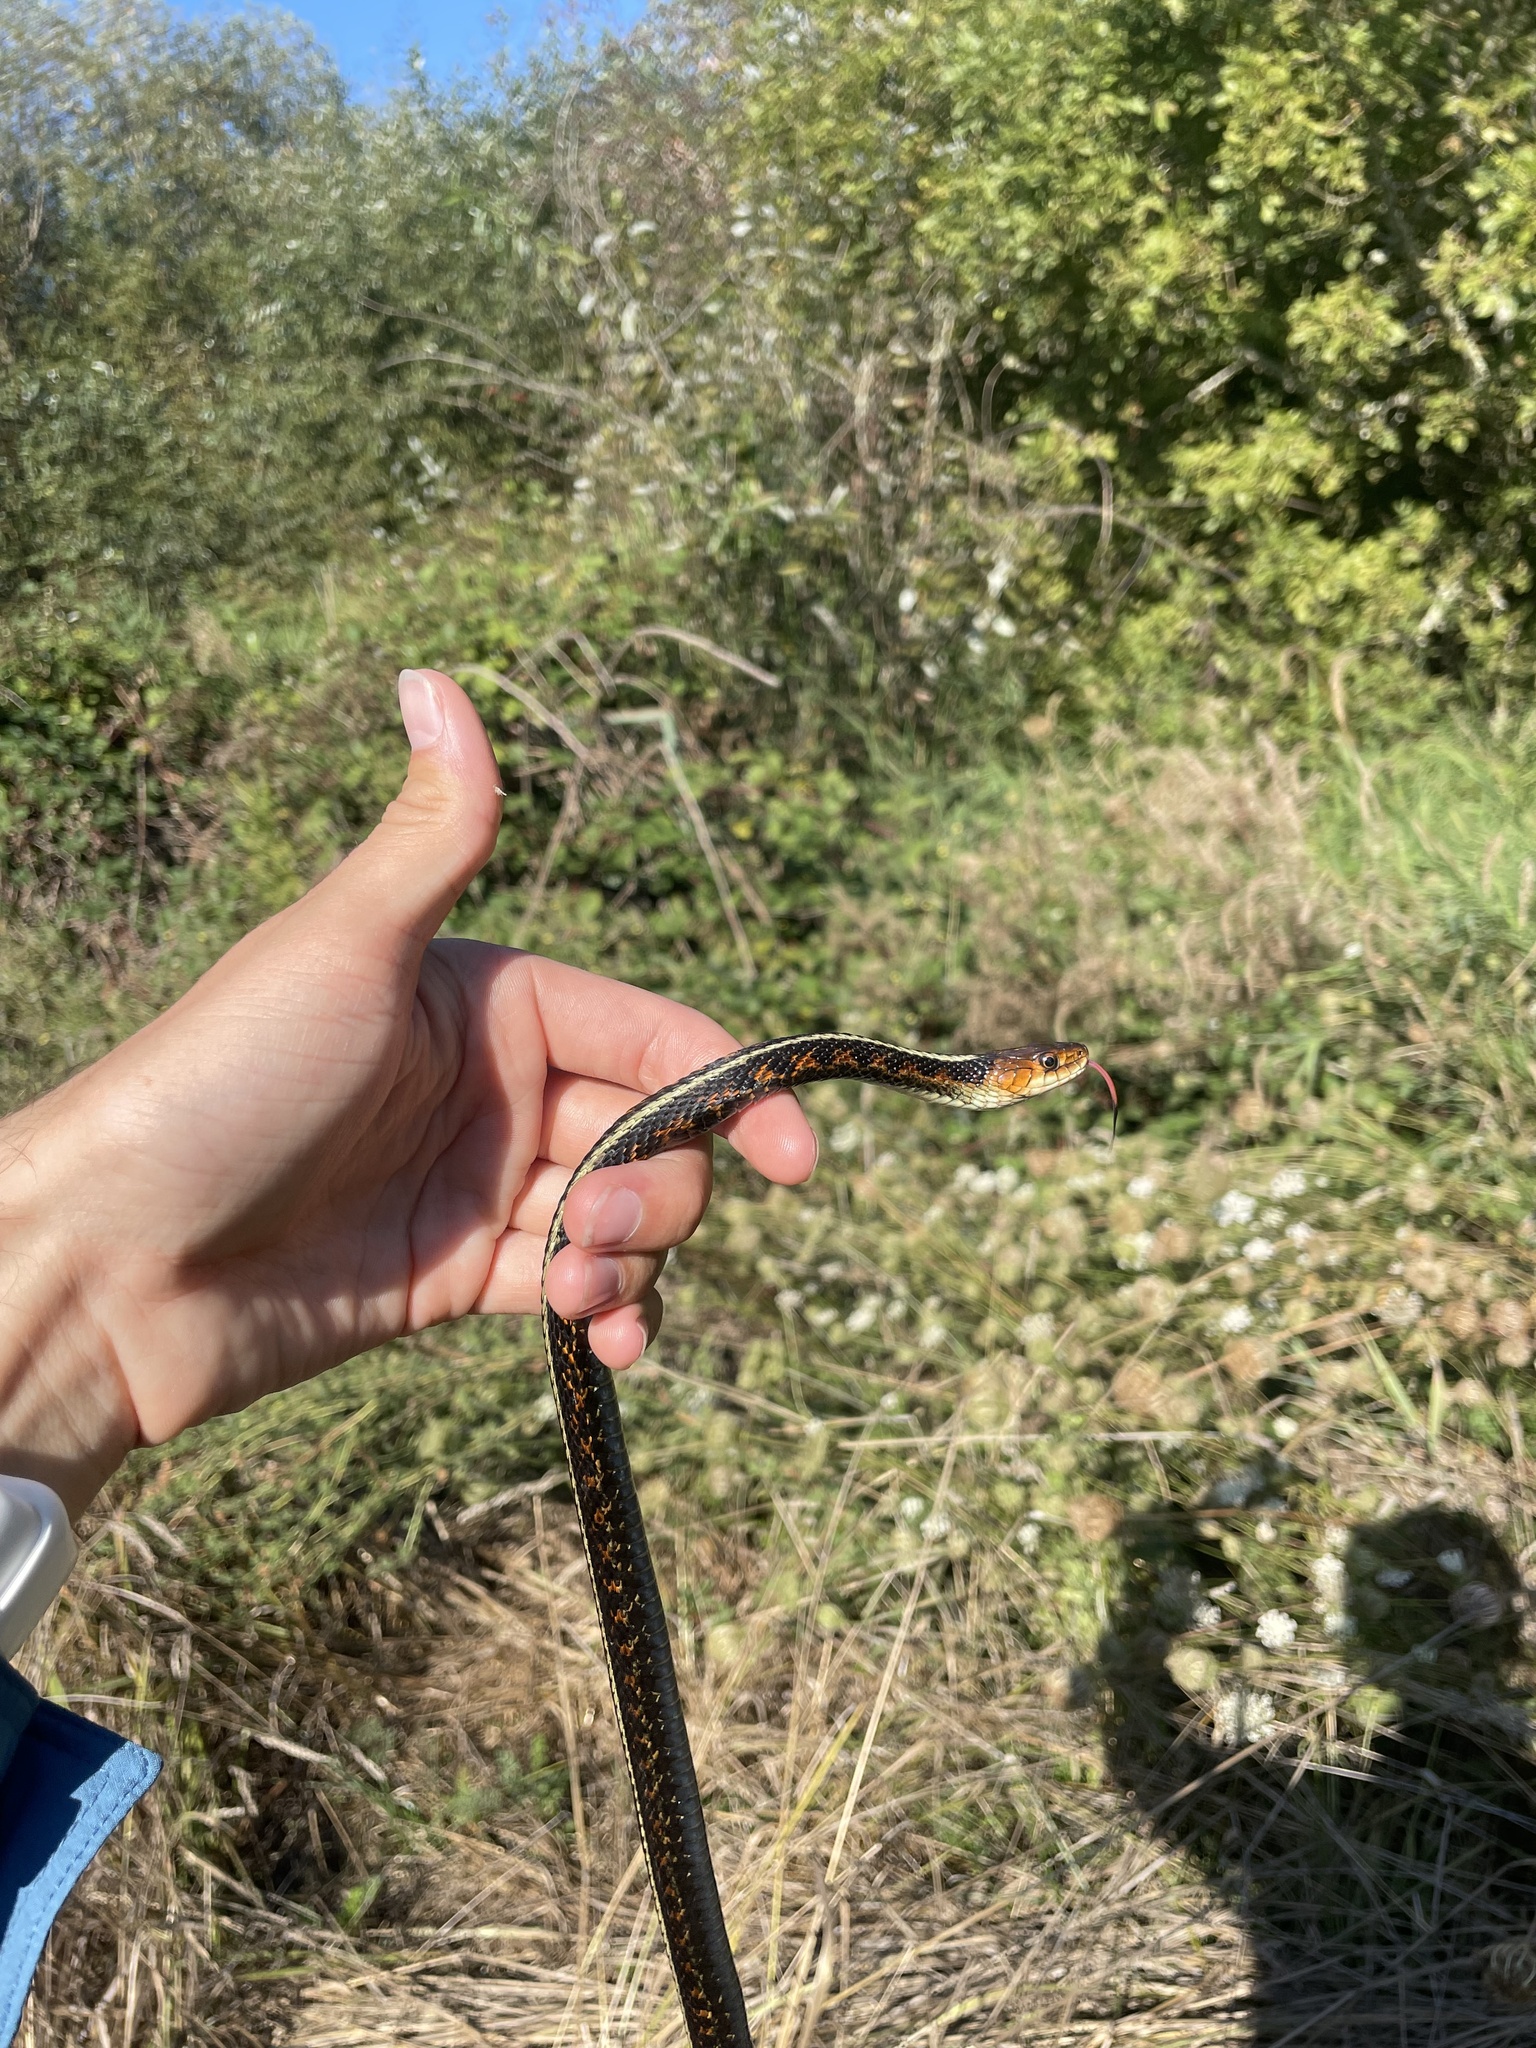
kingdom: Animalia
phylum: Chordata
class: Squamata
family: Colubridae
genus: Thamnophis
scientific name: Thamnophis sirtalis
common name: Common garter snake
